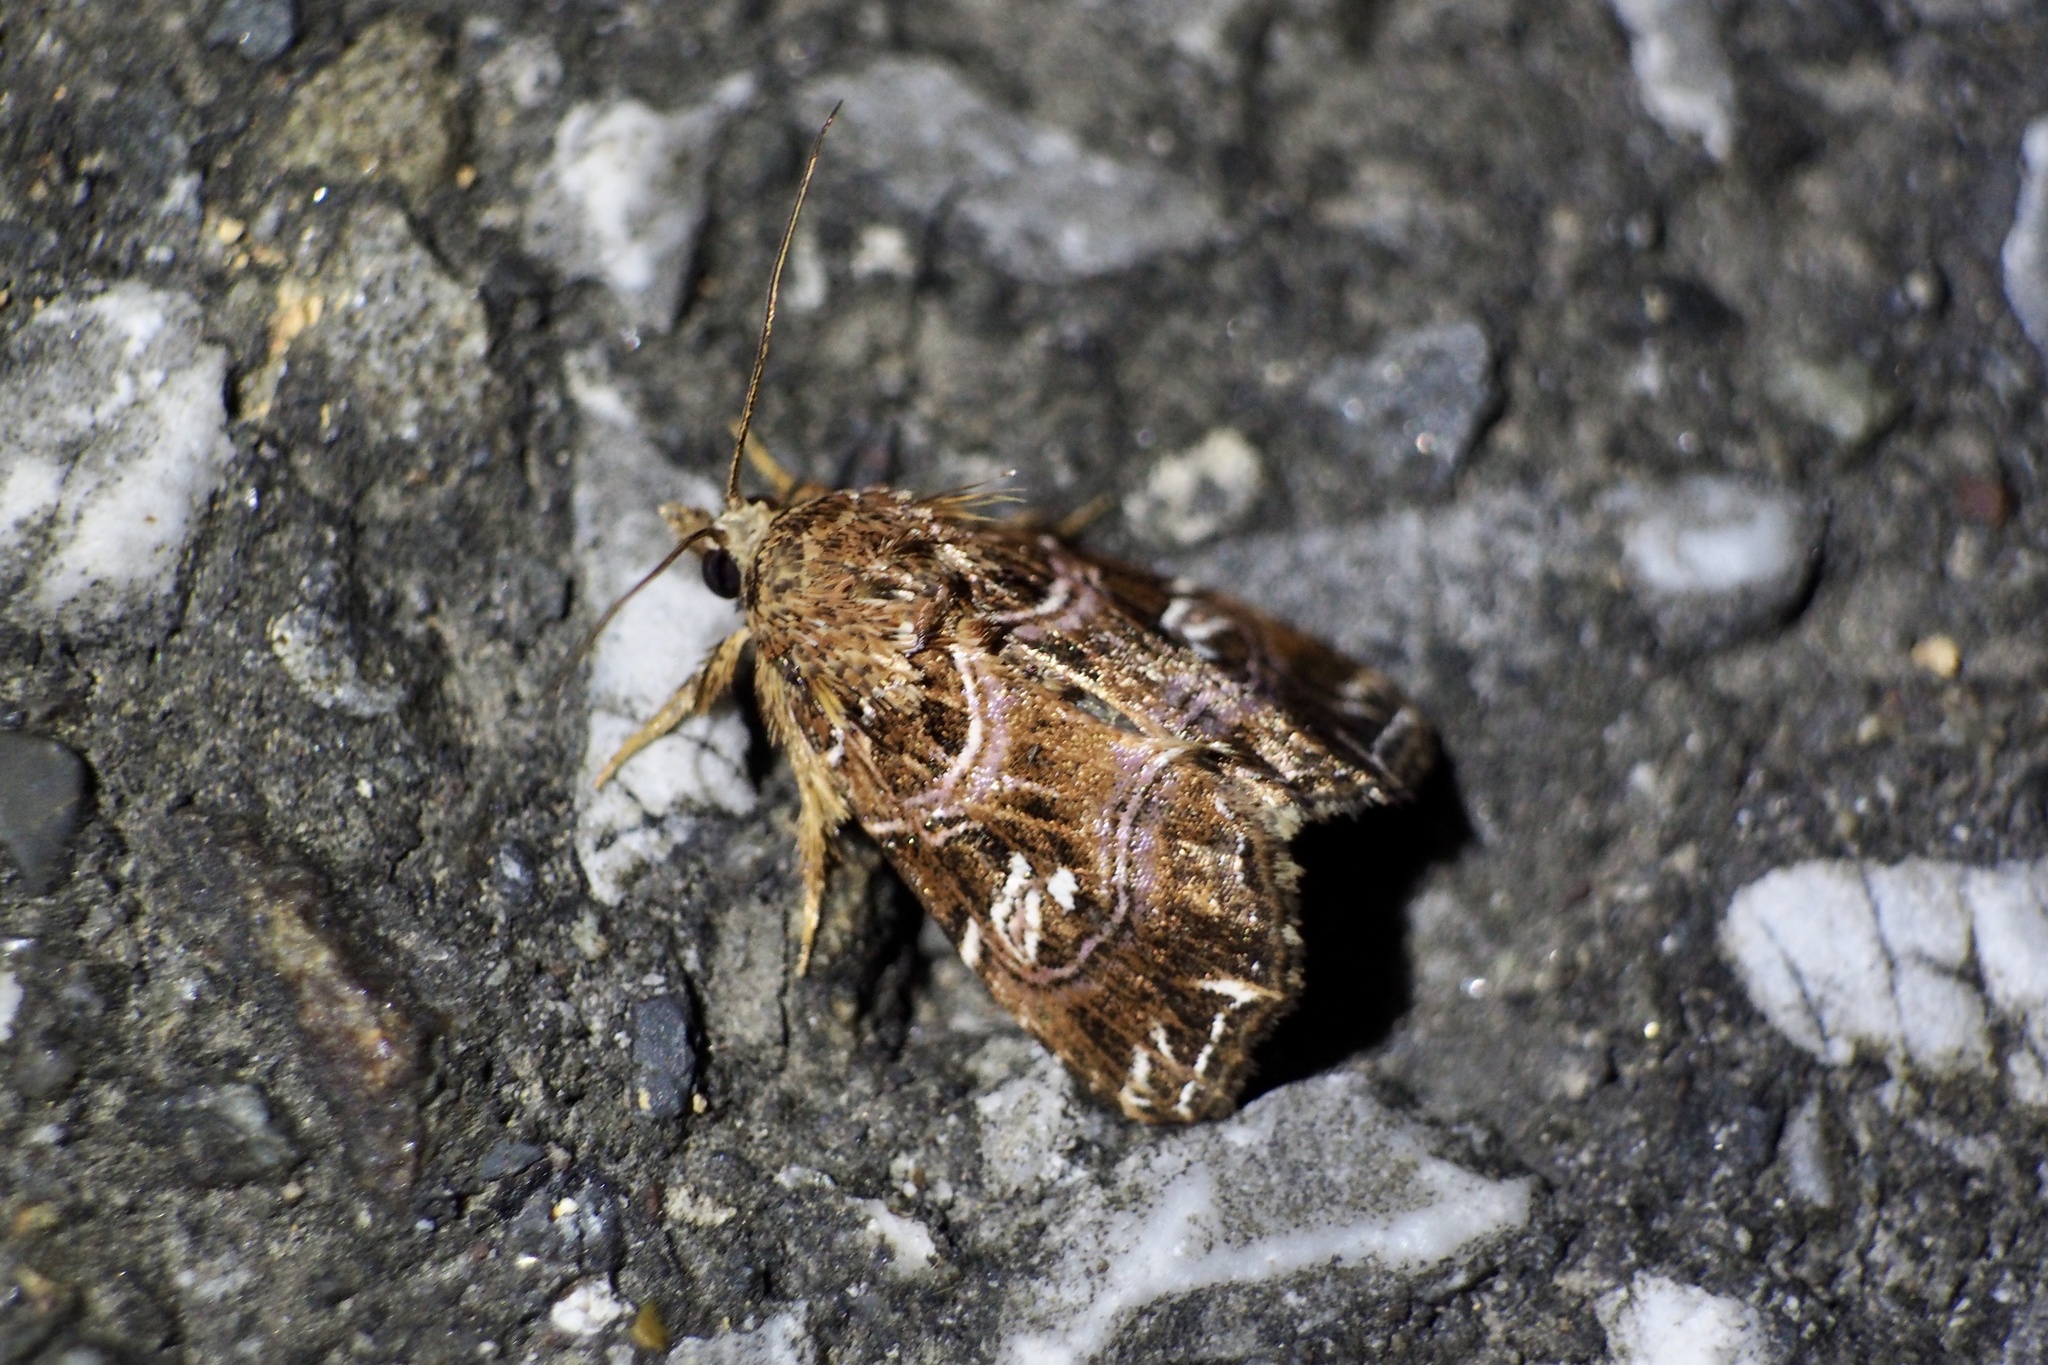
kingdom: Animalia
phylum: Arthropoda
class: Insecta
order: Lepidoptera
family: Noctuidae
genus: Callopistria
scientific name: Callopistria japonibia
